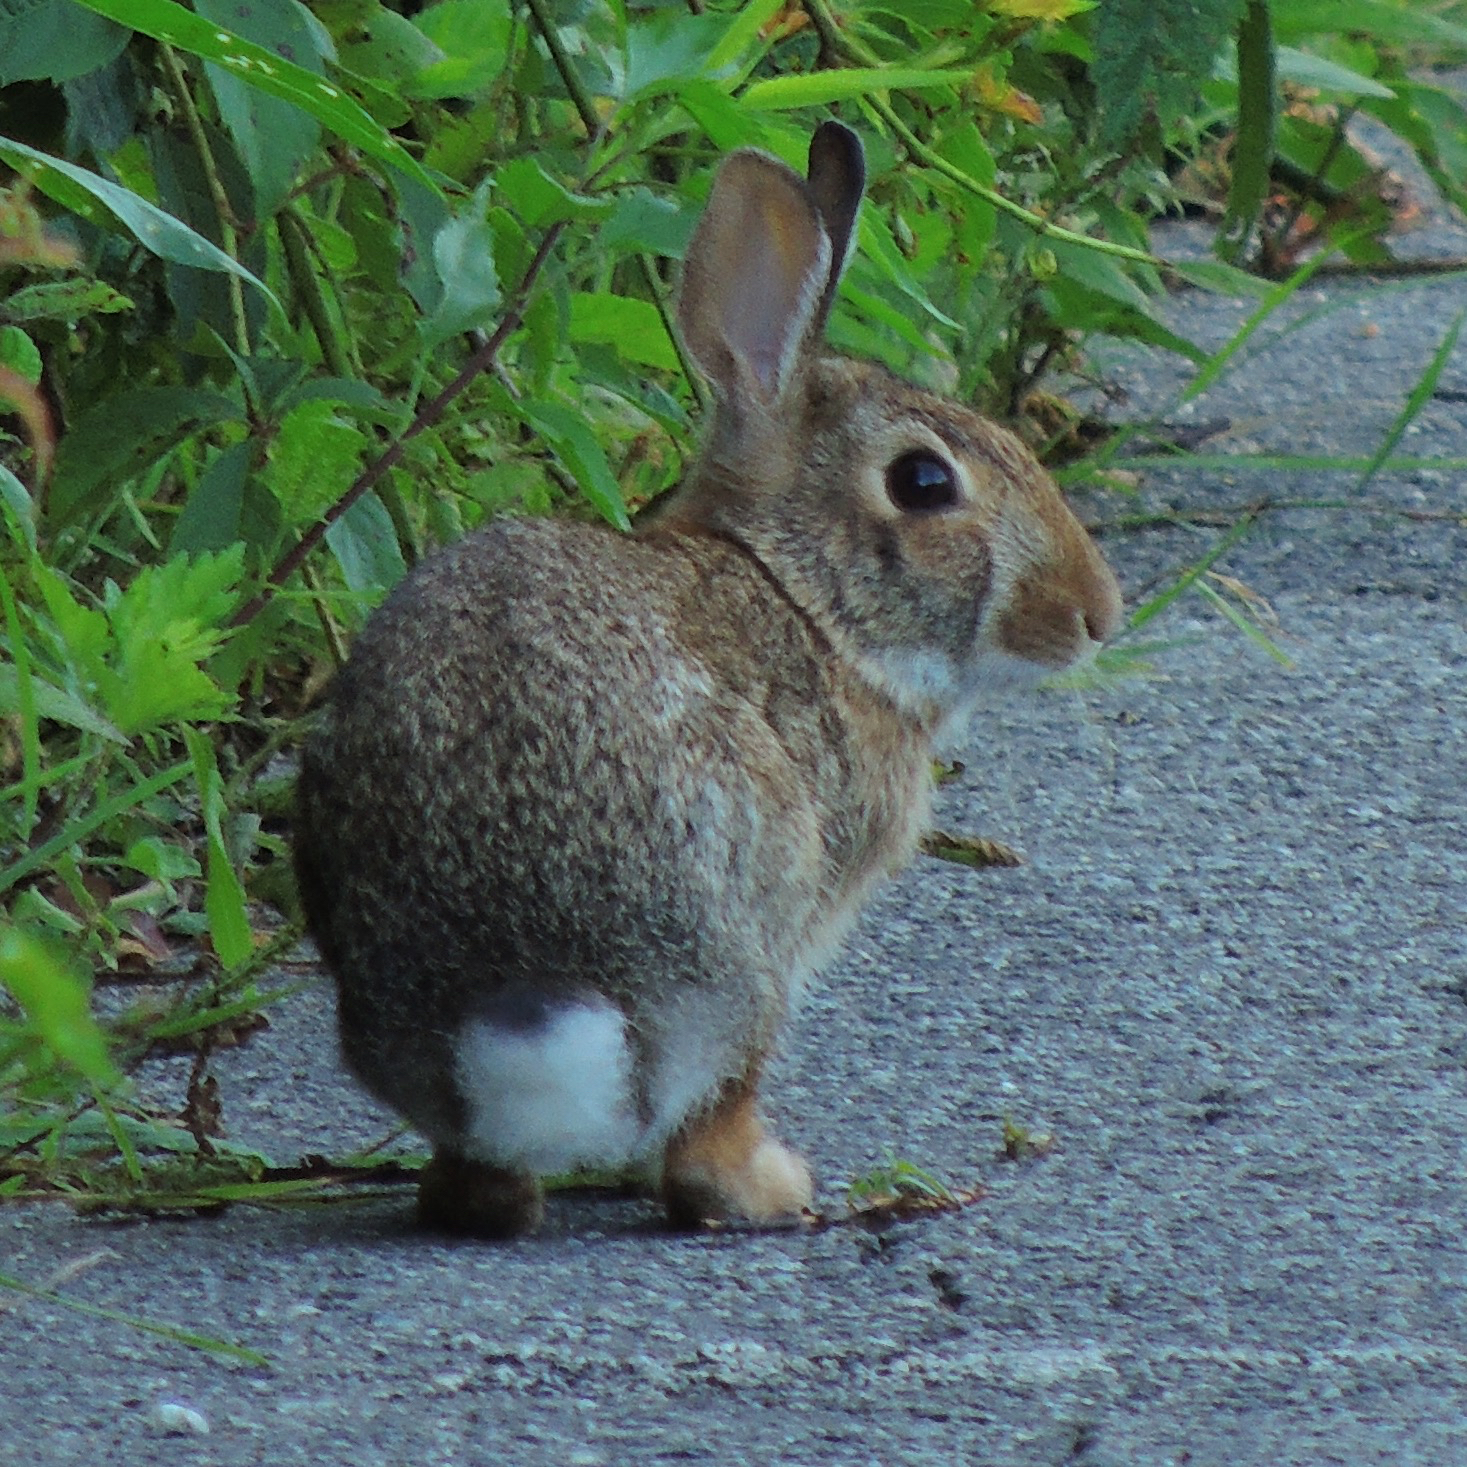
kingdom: Animalia
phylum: Chordata
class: Mammalia
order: Lagomorpha
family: Leporidae
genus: Sylvilagus
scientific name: Sylvilagus floridanus
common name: Eastern cottontail
